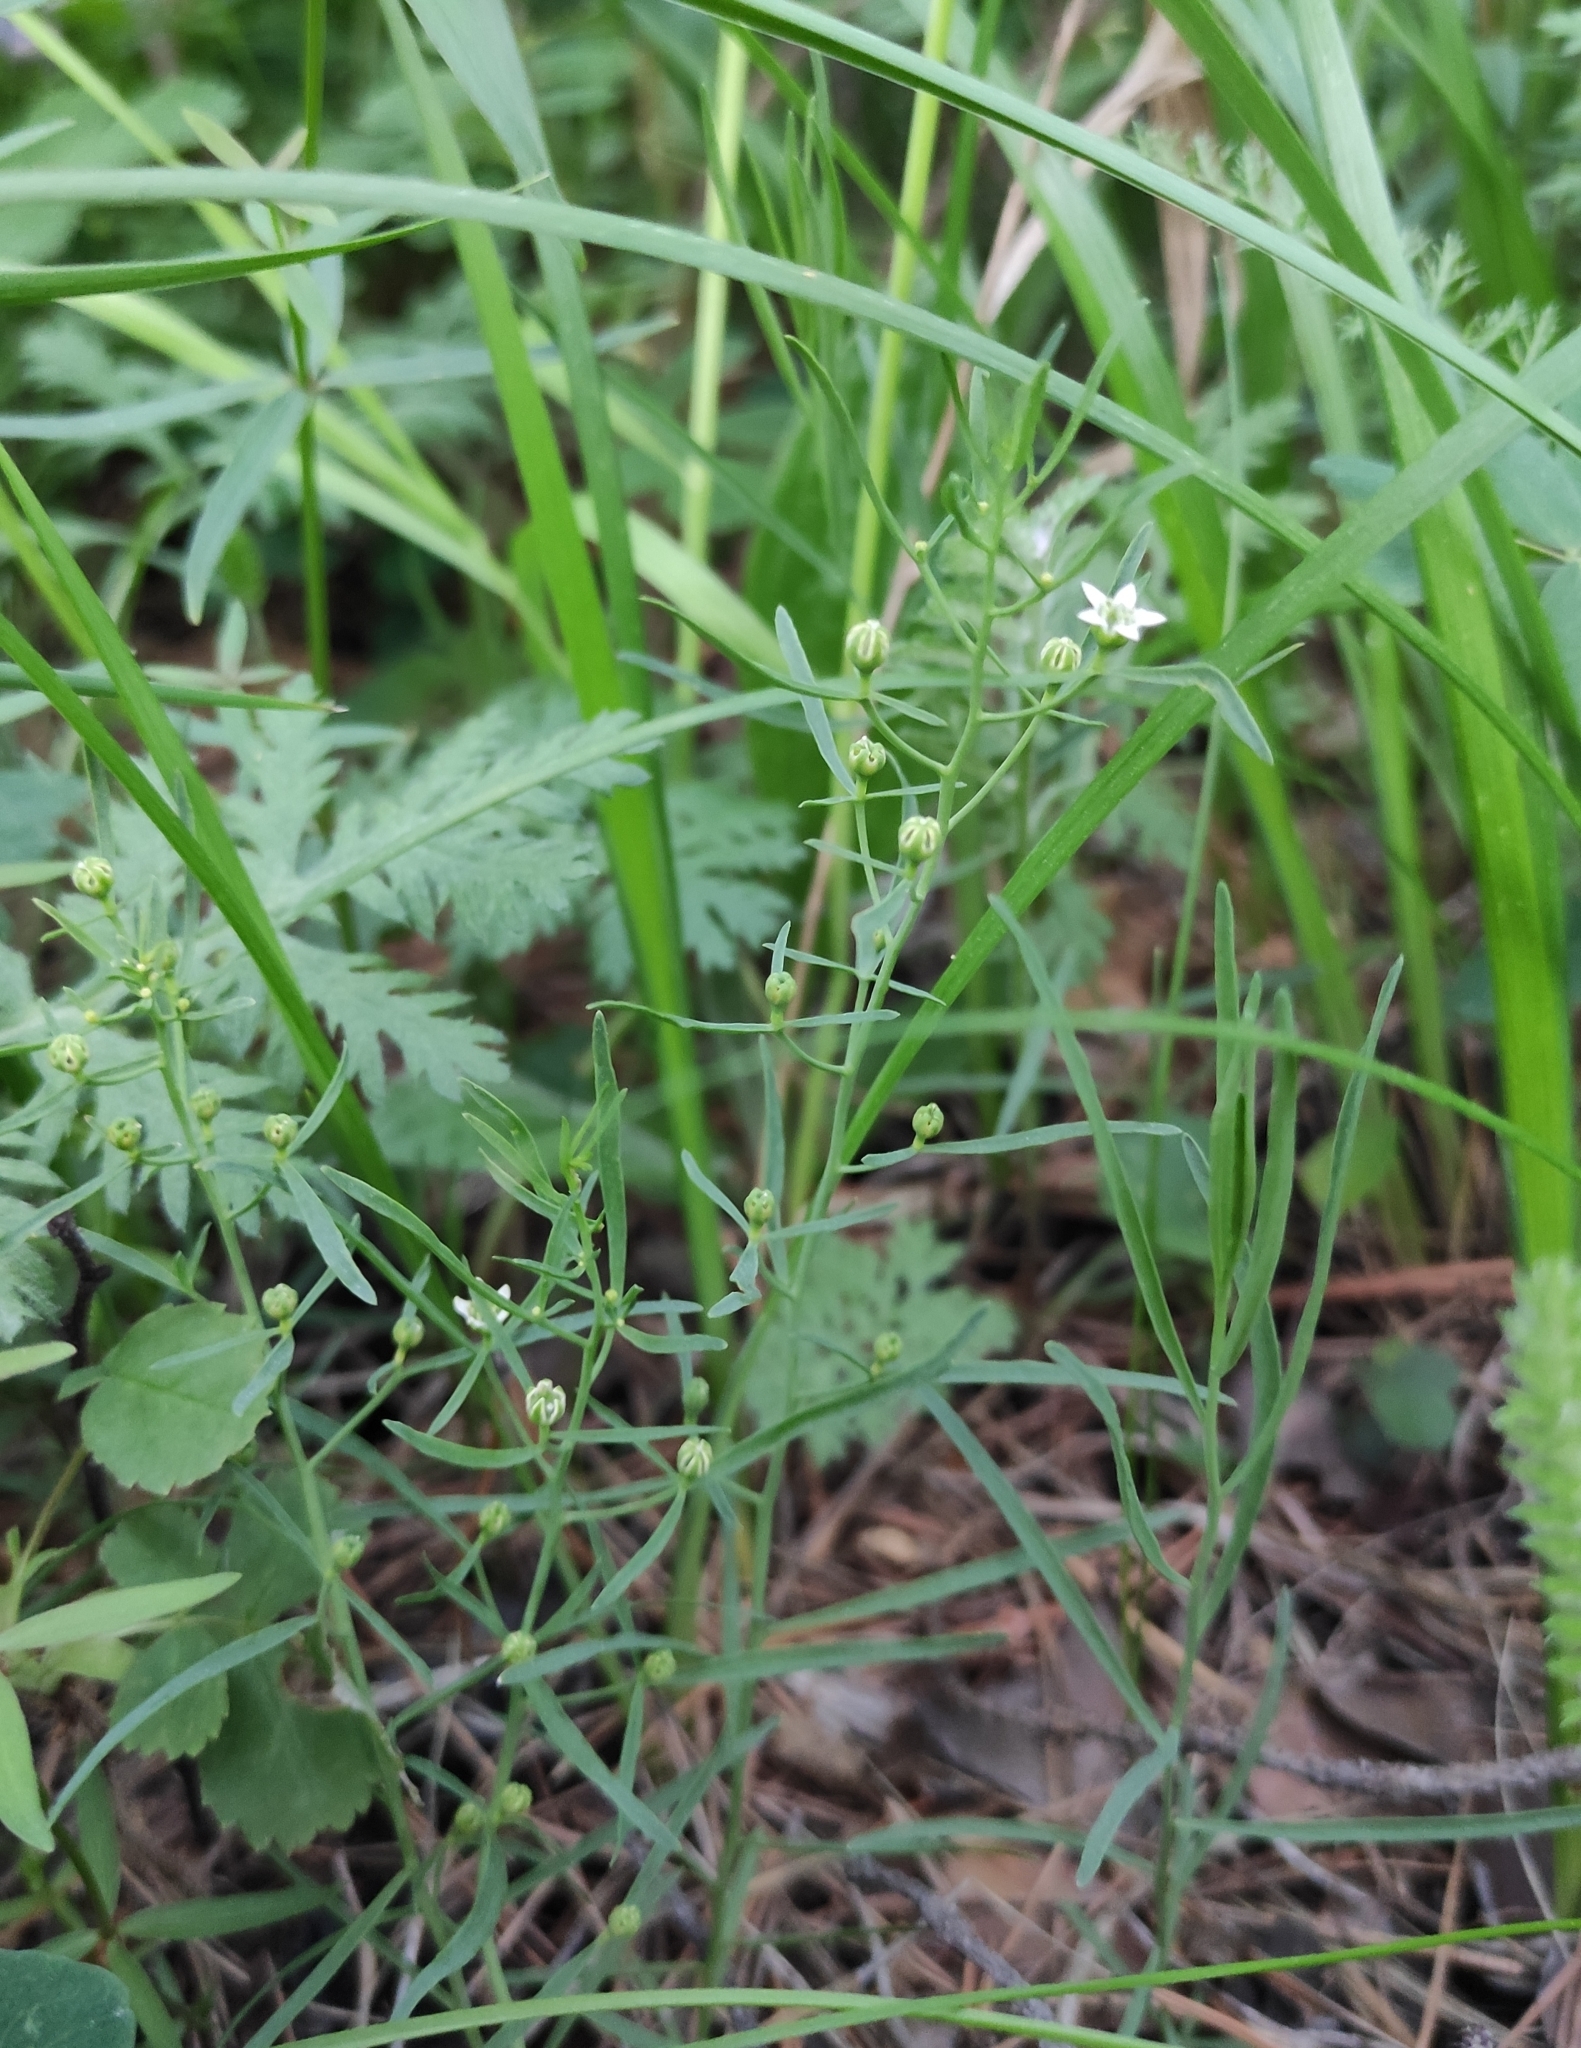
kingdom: Plantae
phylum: Tracheophyta
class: Magnoliopsida
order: Santalales
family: Thesiaceae
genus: Thesium
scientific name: Thesium repens
